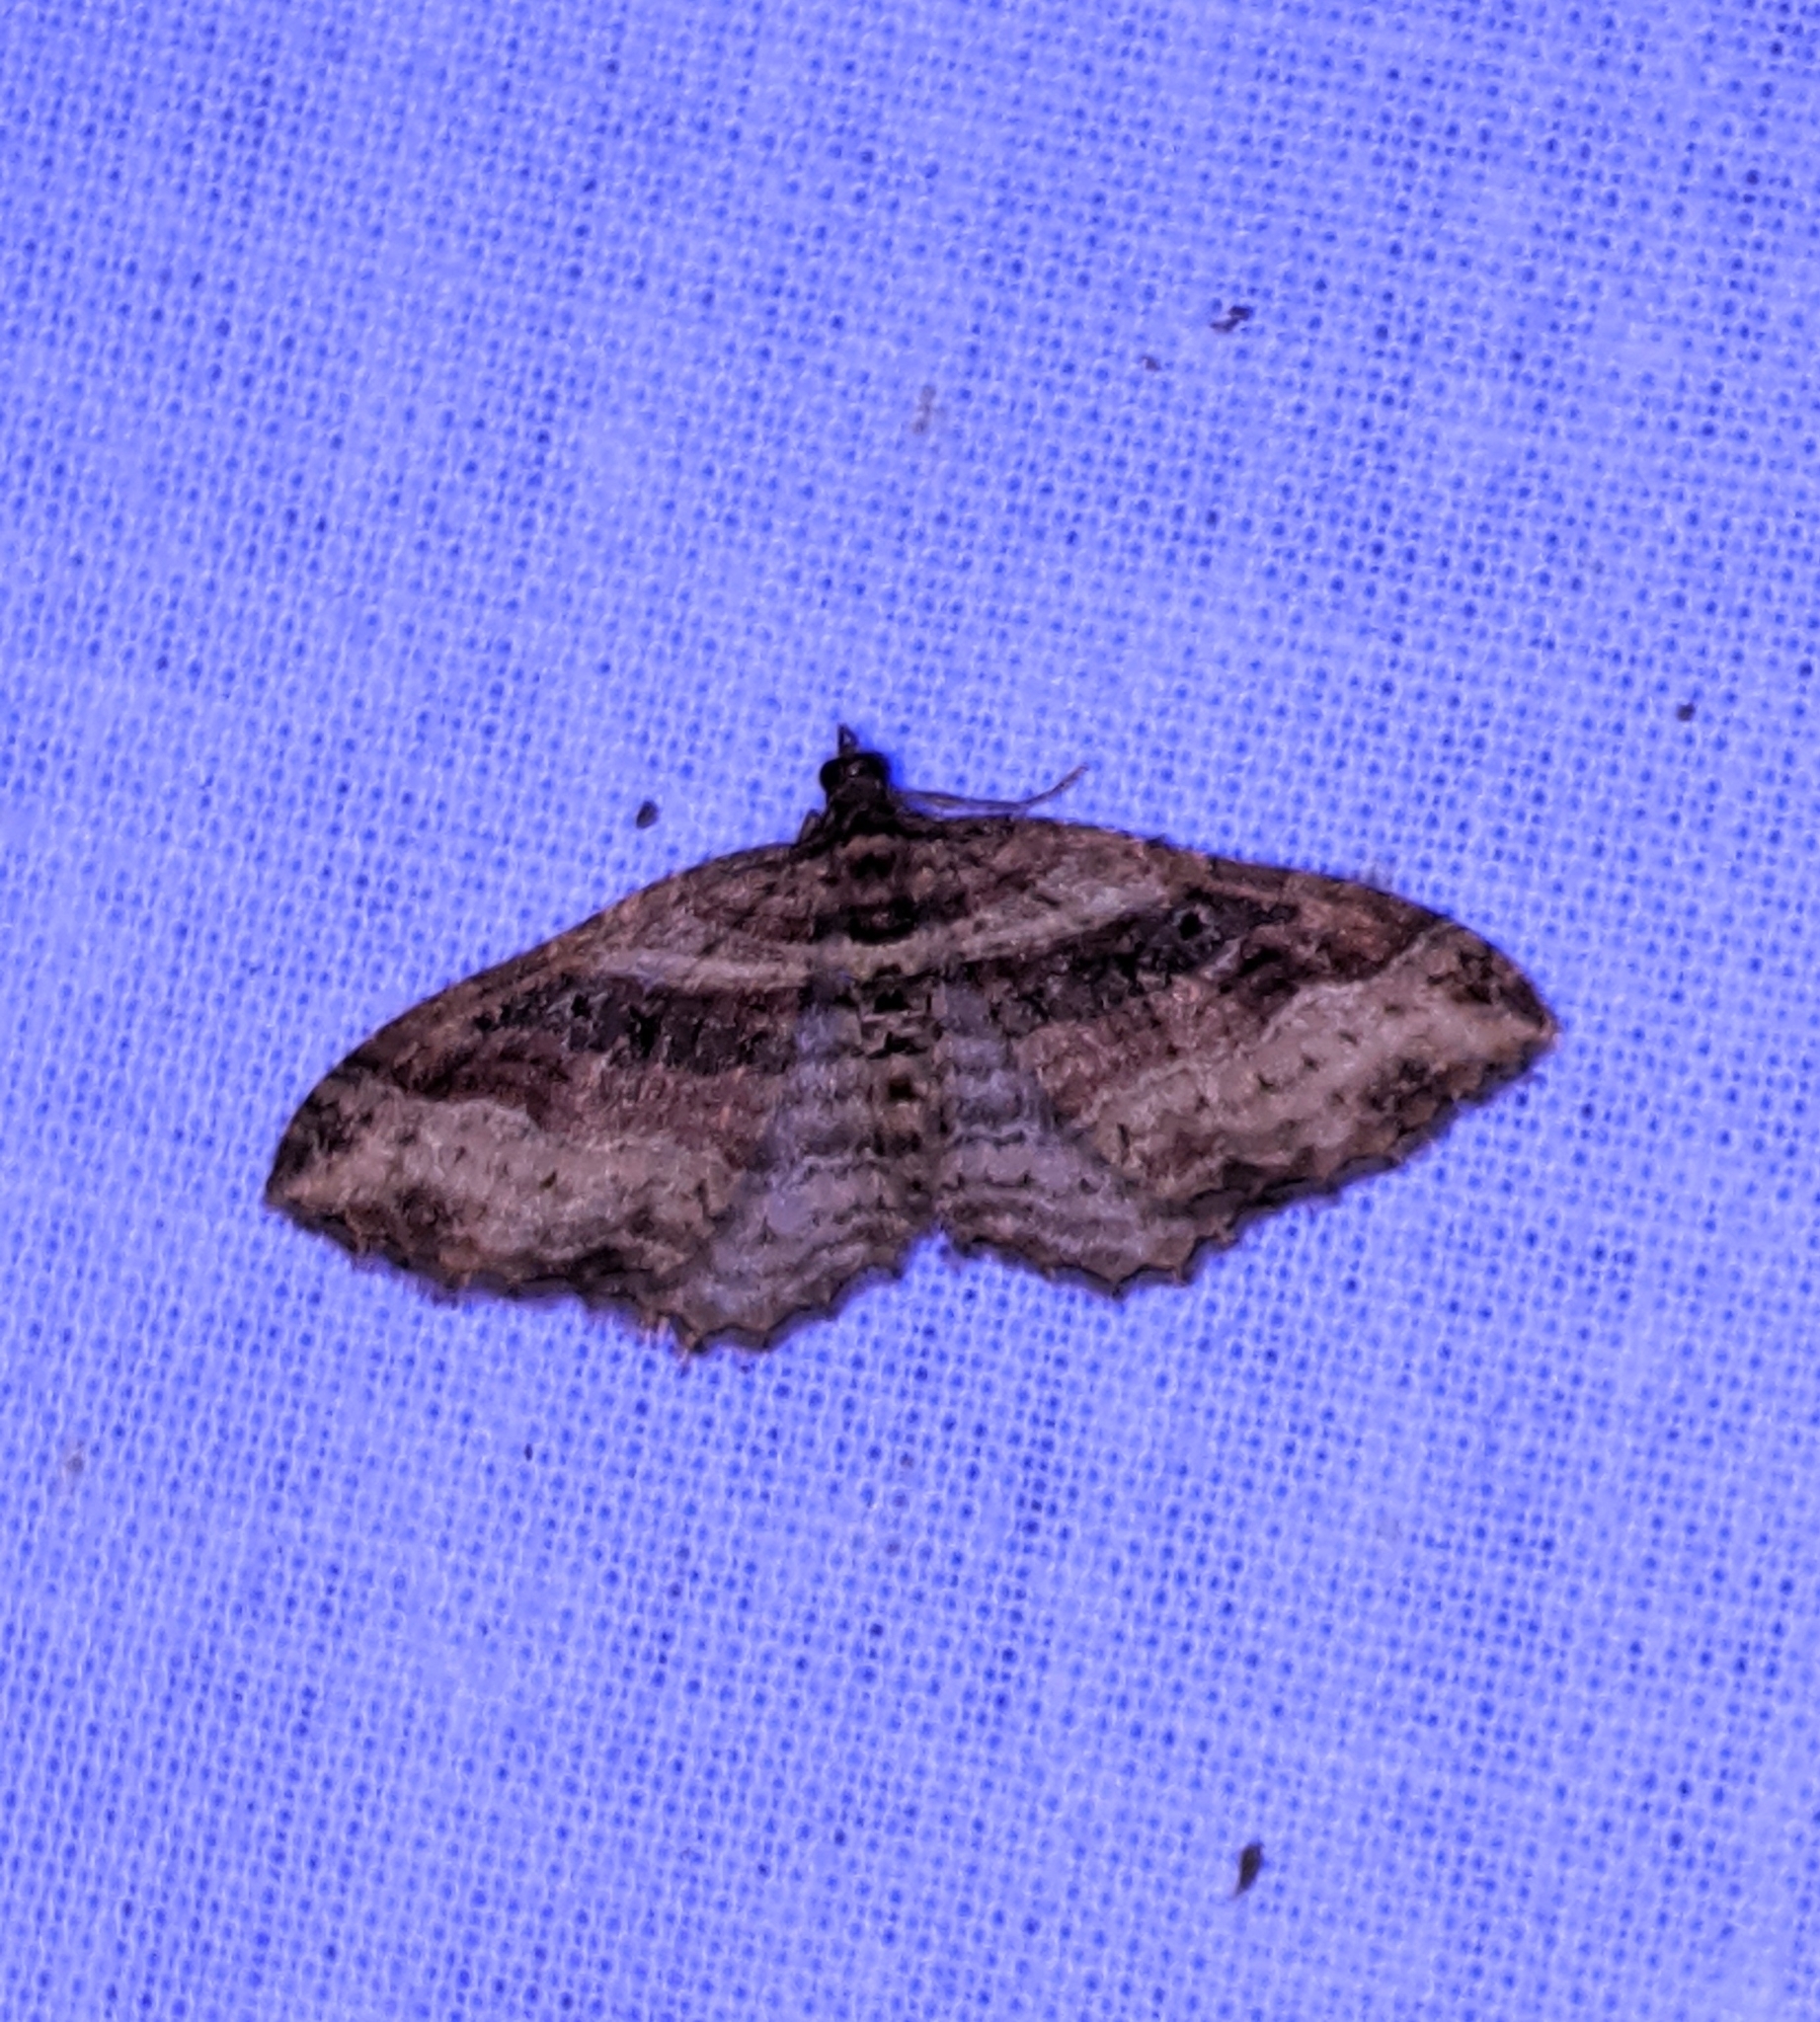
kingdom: Animalia
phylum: Arthropoda
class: Insecta
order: Lepidoptera
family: Geometridae
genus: Costaconvexa
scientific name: Costaconvexa centrostrigaria
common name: Bent-line carpet
